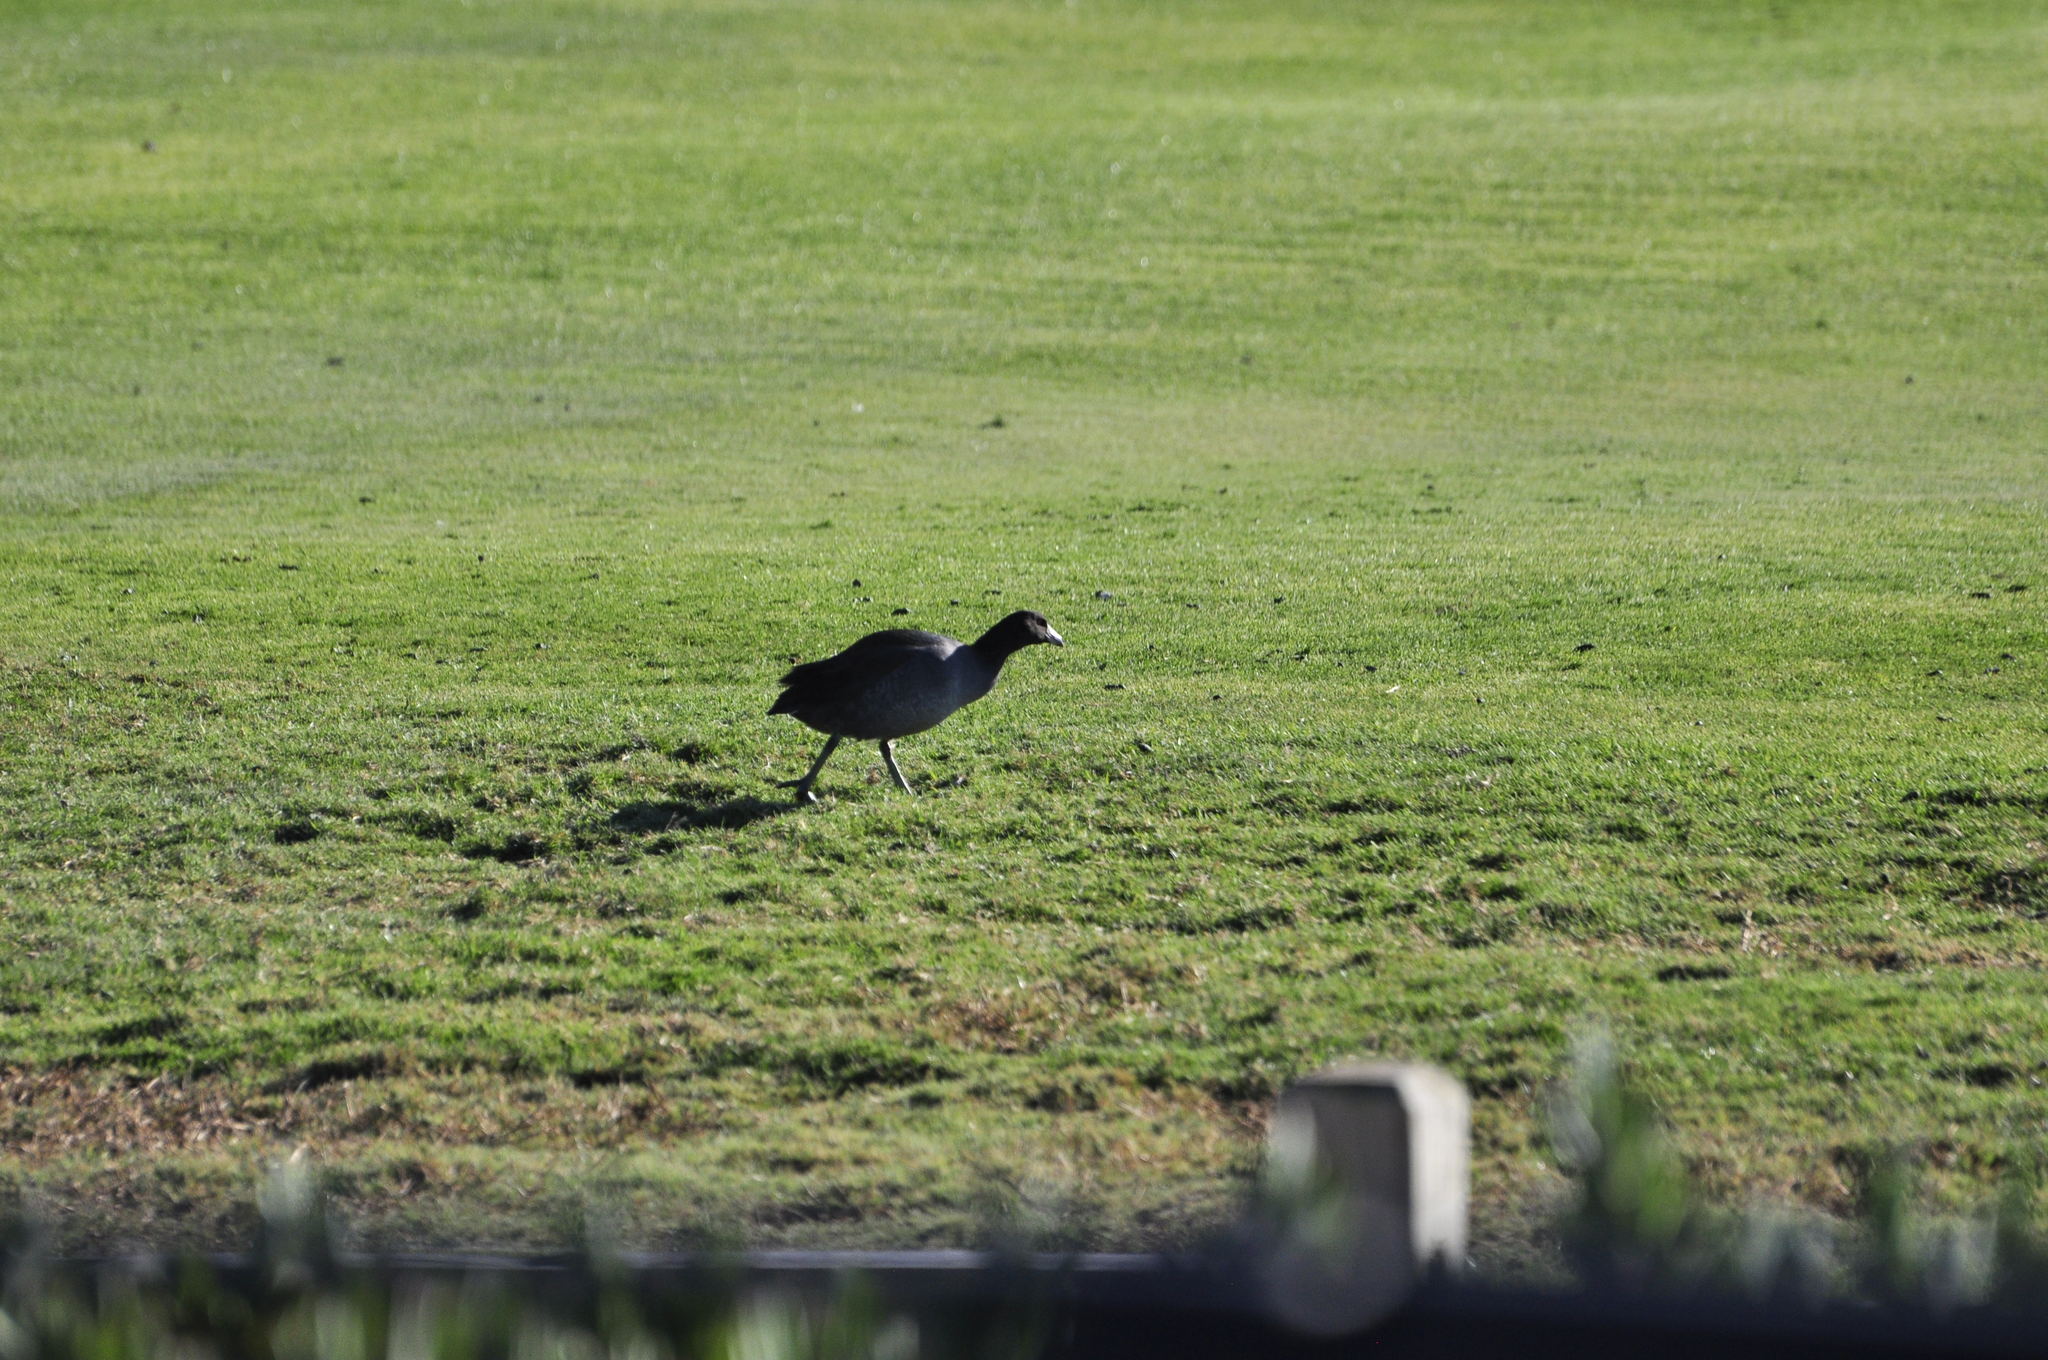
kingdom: Animalia
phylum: Chordata
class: Aves
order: Gruiformes
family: Rallidae
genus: Fulica
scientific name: Fulica americana
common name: American coot
